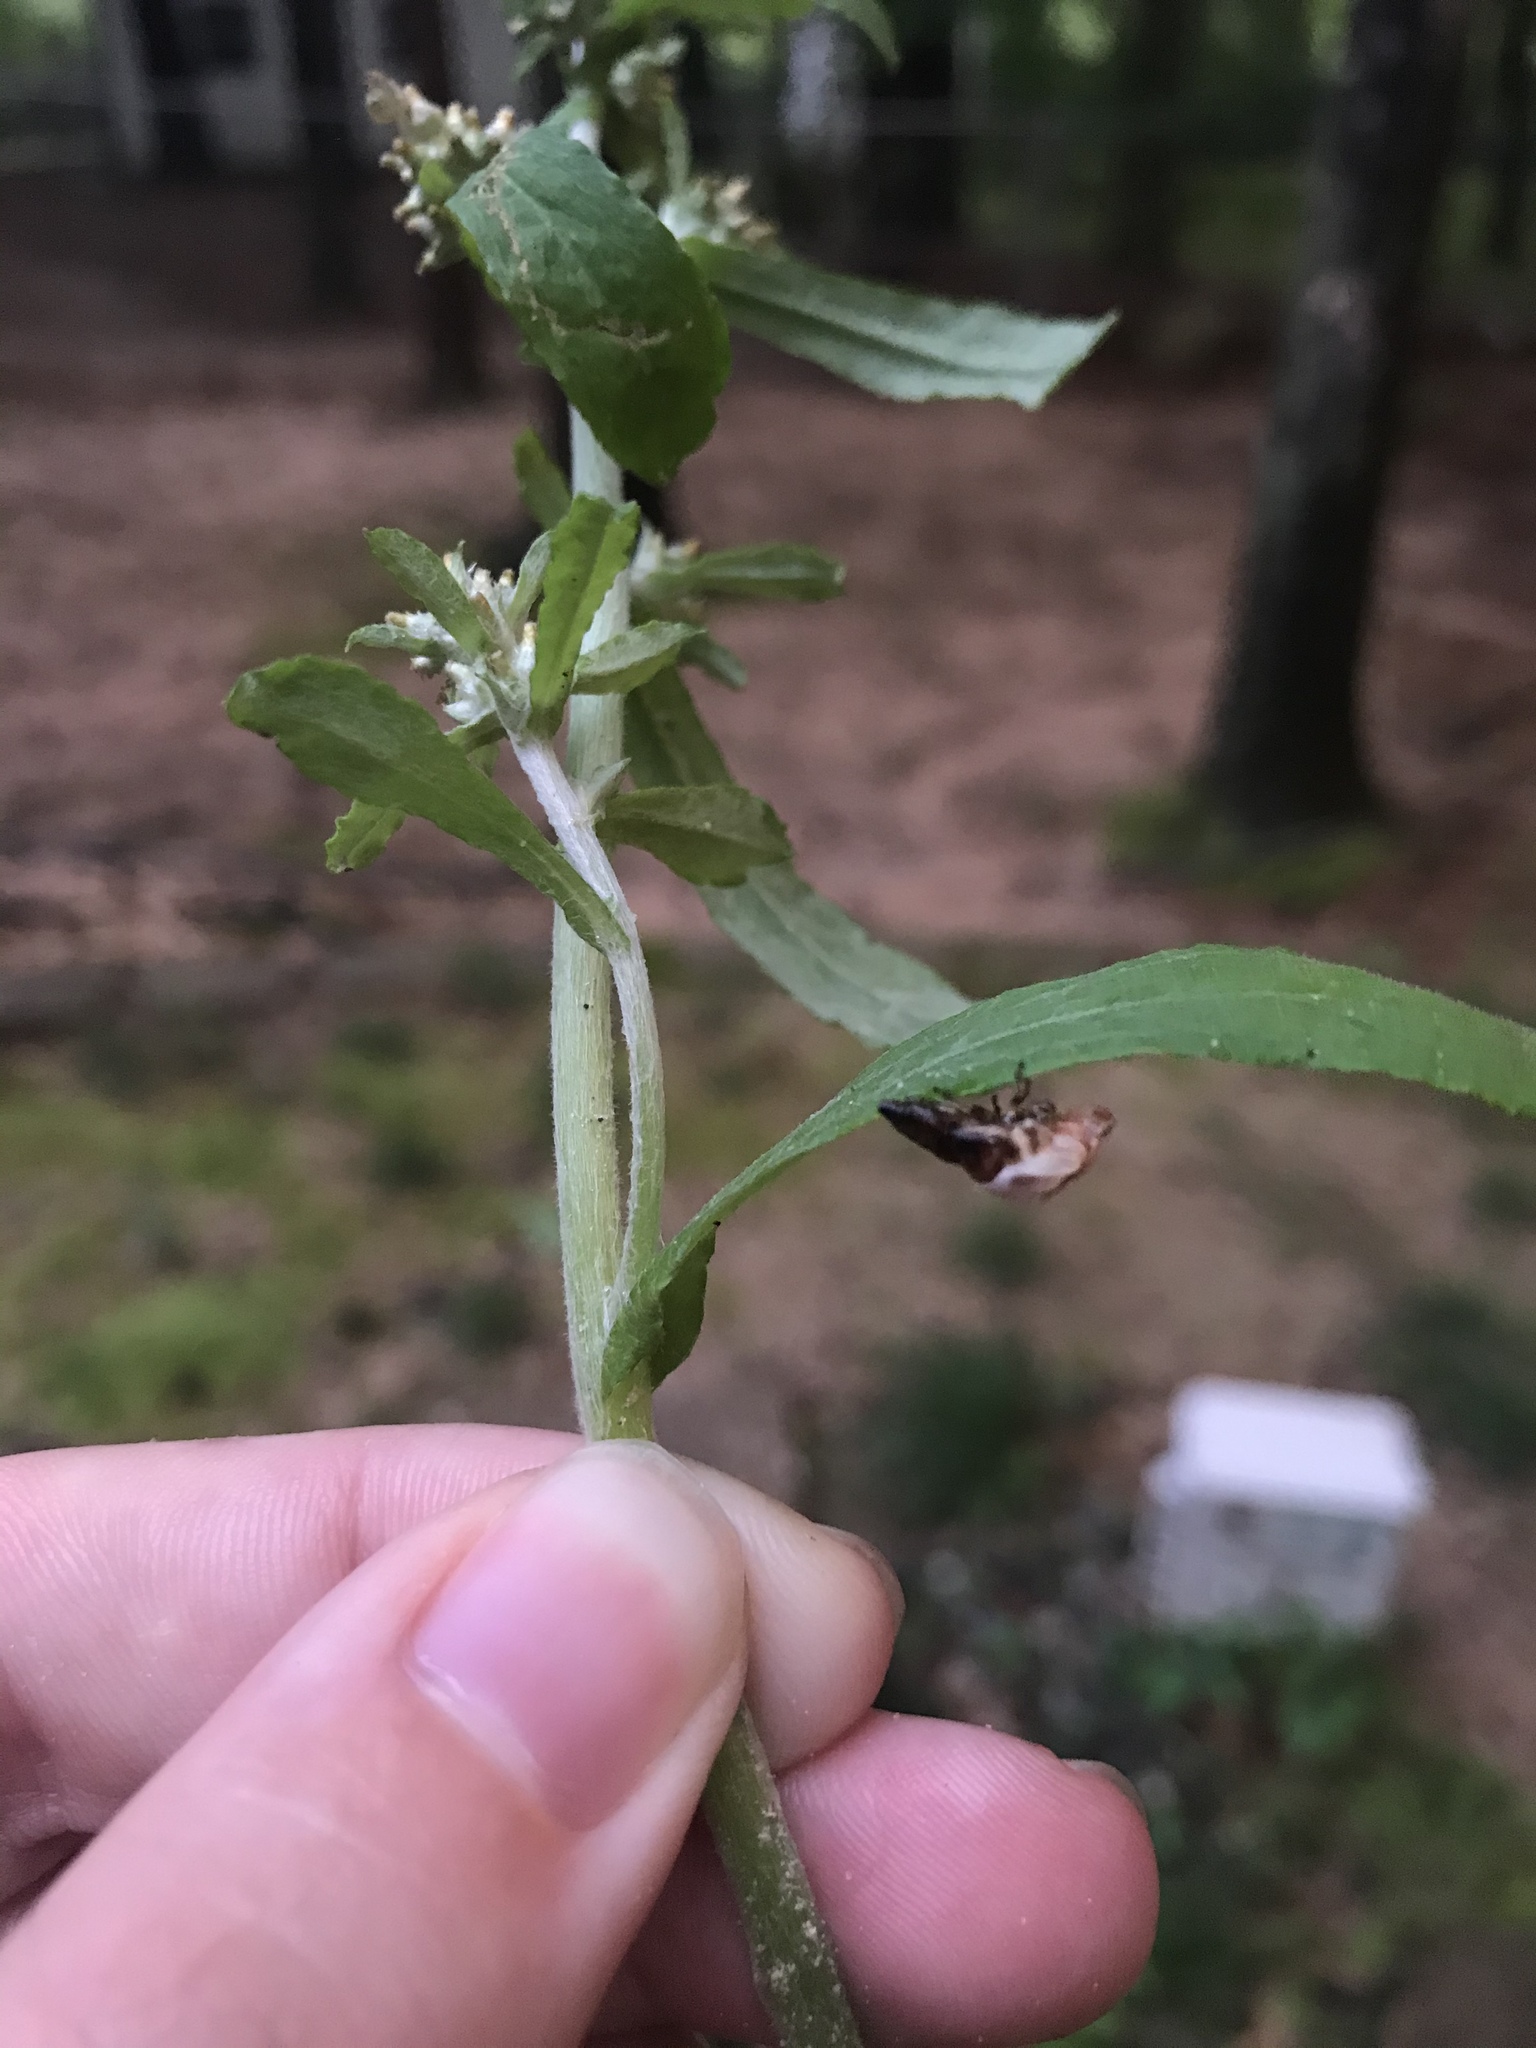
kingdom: Plantae
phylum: Tracheophyta
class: Magnoliopsida
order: Asterales
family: Asteraceae
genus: Gamochaeta
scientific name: Gamochaeta pensylvanica
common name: Pennsylvania everlasting
